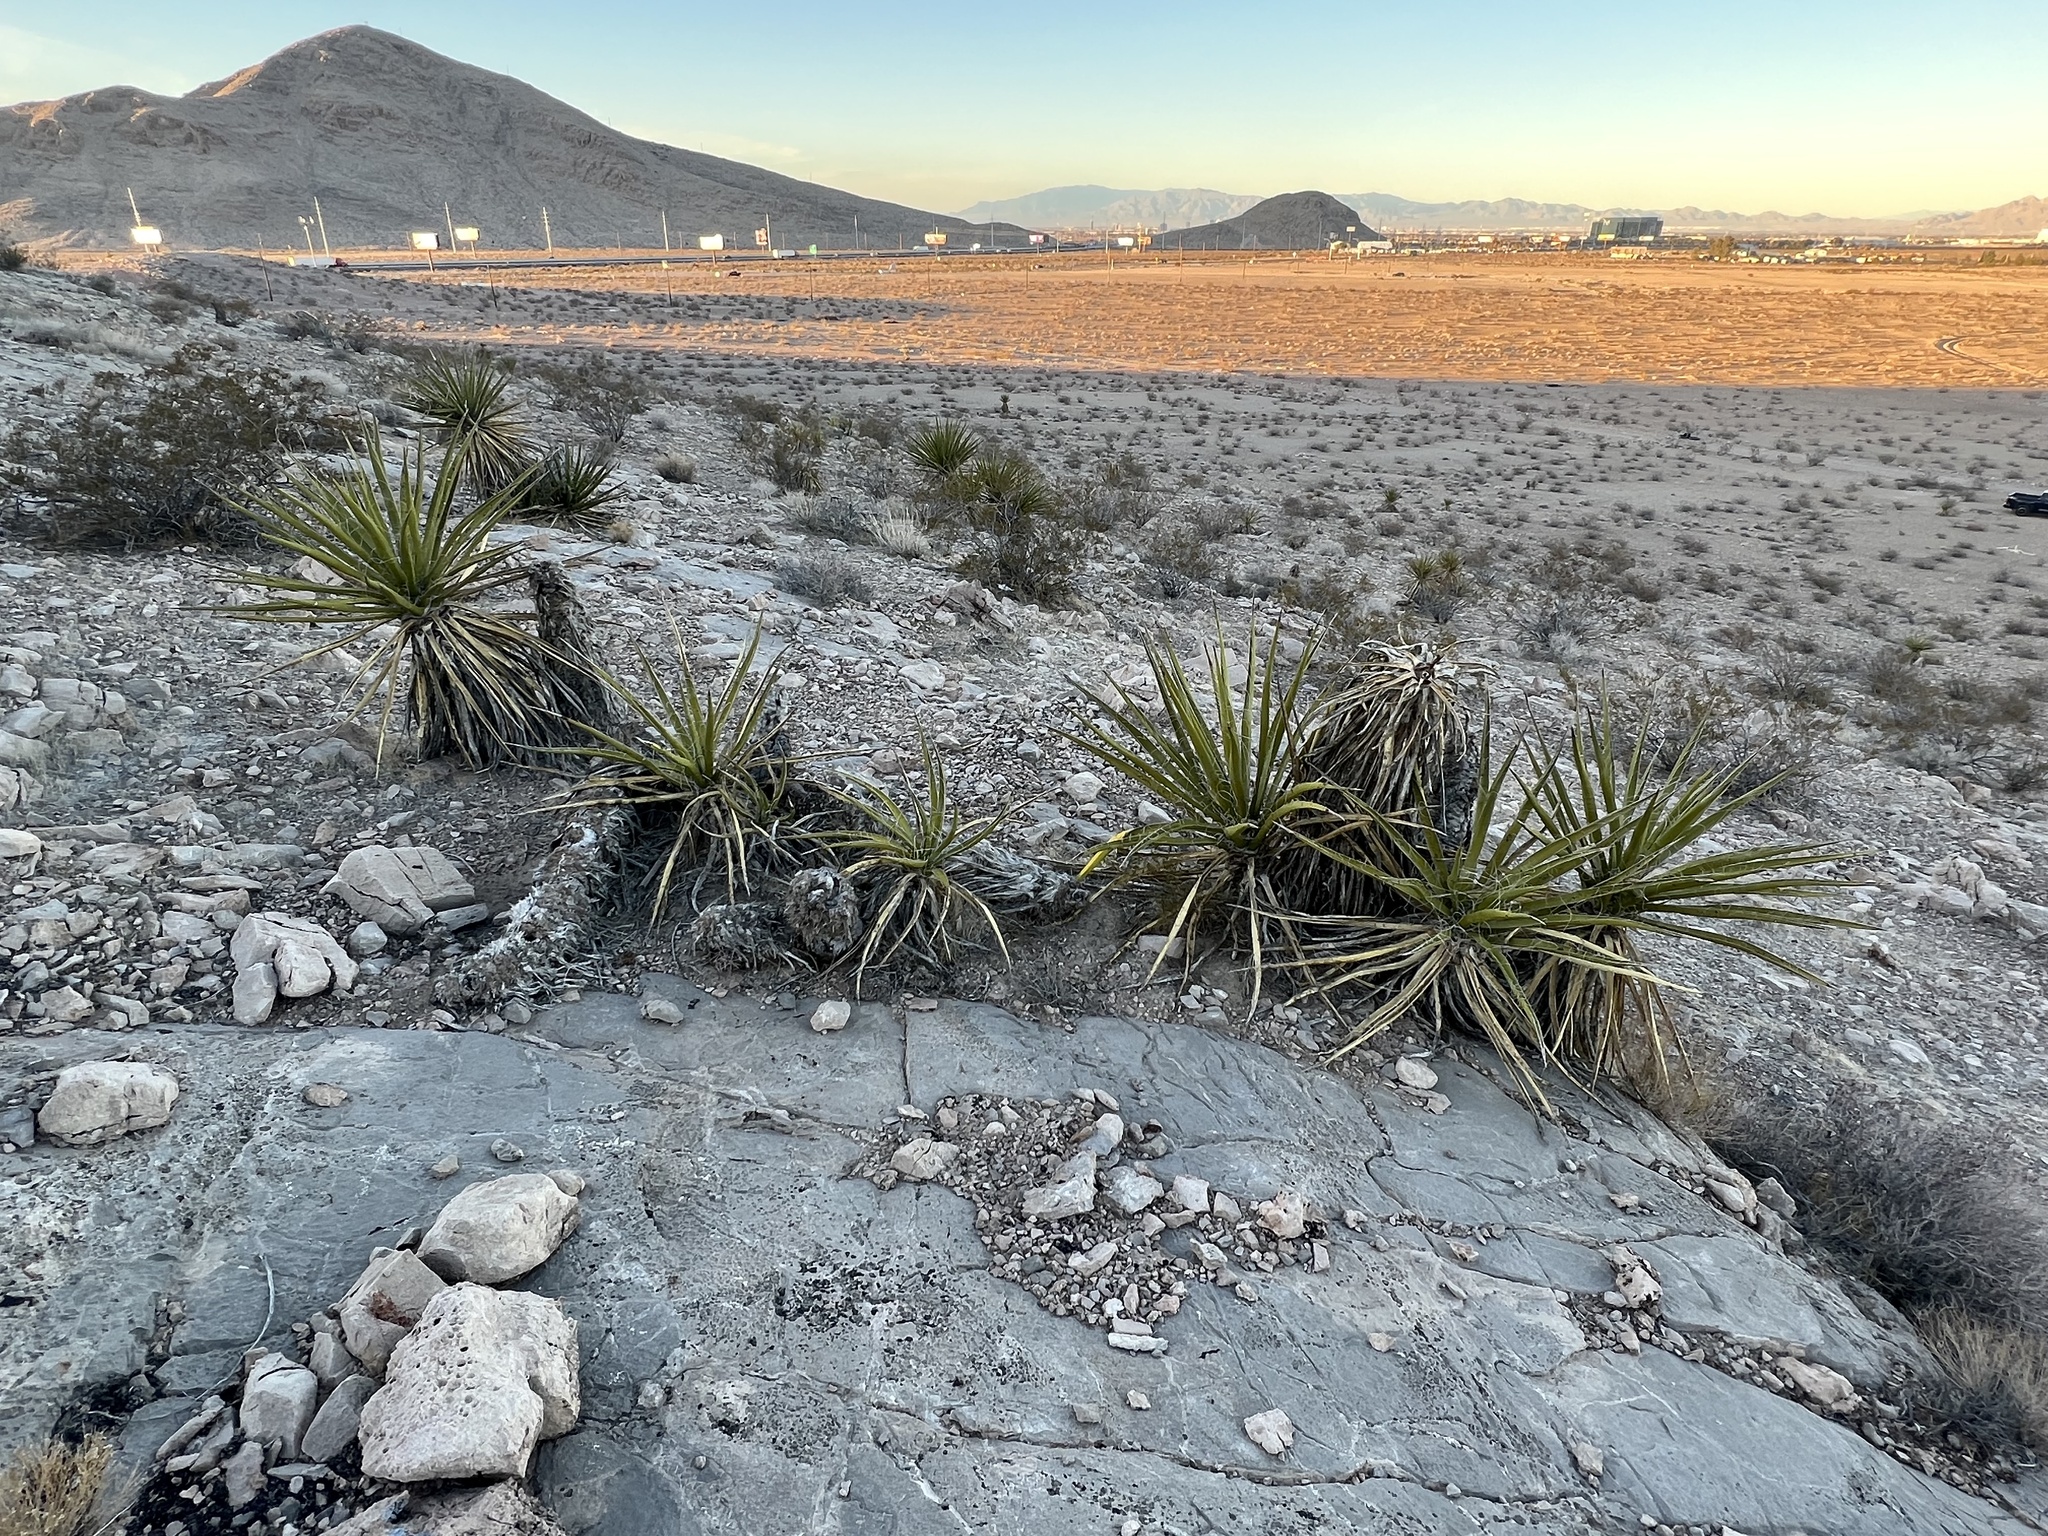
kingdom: Plantae
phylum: Tracheophyta
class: Liliopsida
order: Asparagales
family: Asparagaceae
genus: Yucca
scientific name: Yucca schidigera
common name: Mojave yucca
